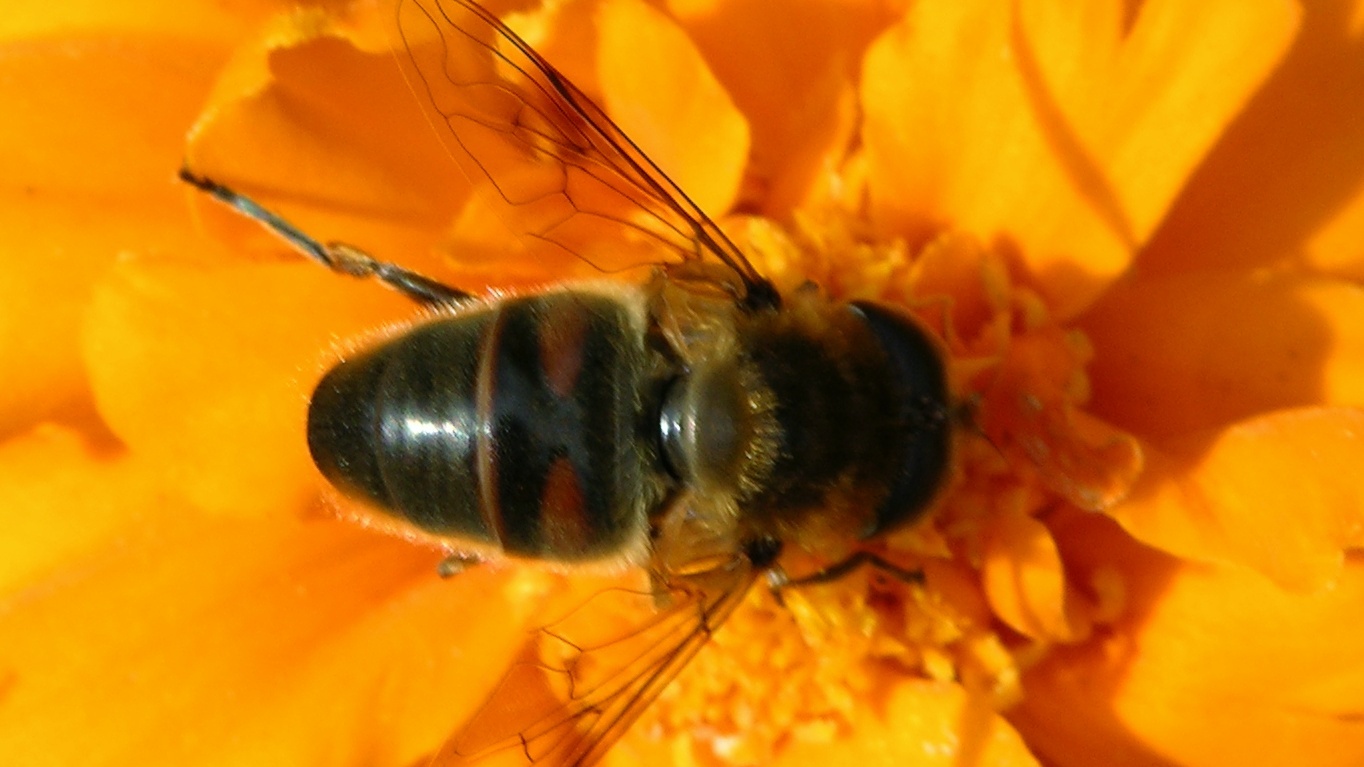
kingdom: Animalia
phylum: Arthropoda
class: Insecta
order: Diptera
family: Syrphidae
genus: Eristalis
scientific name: Eristalis tenax
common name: Drone fly
